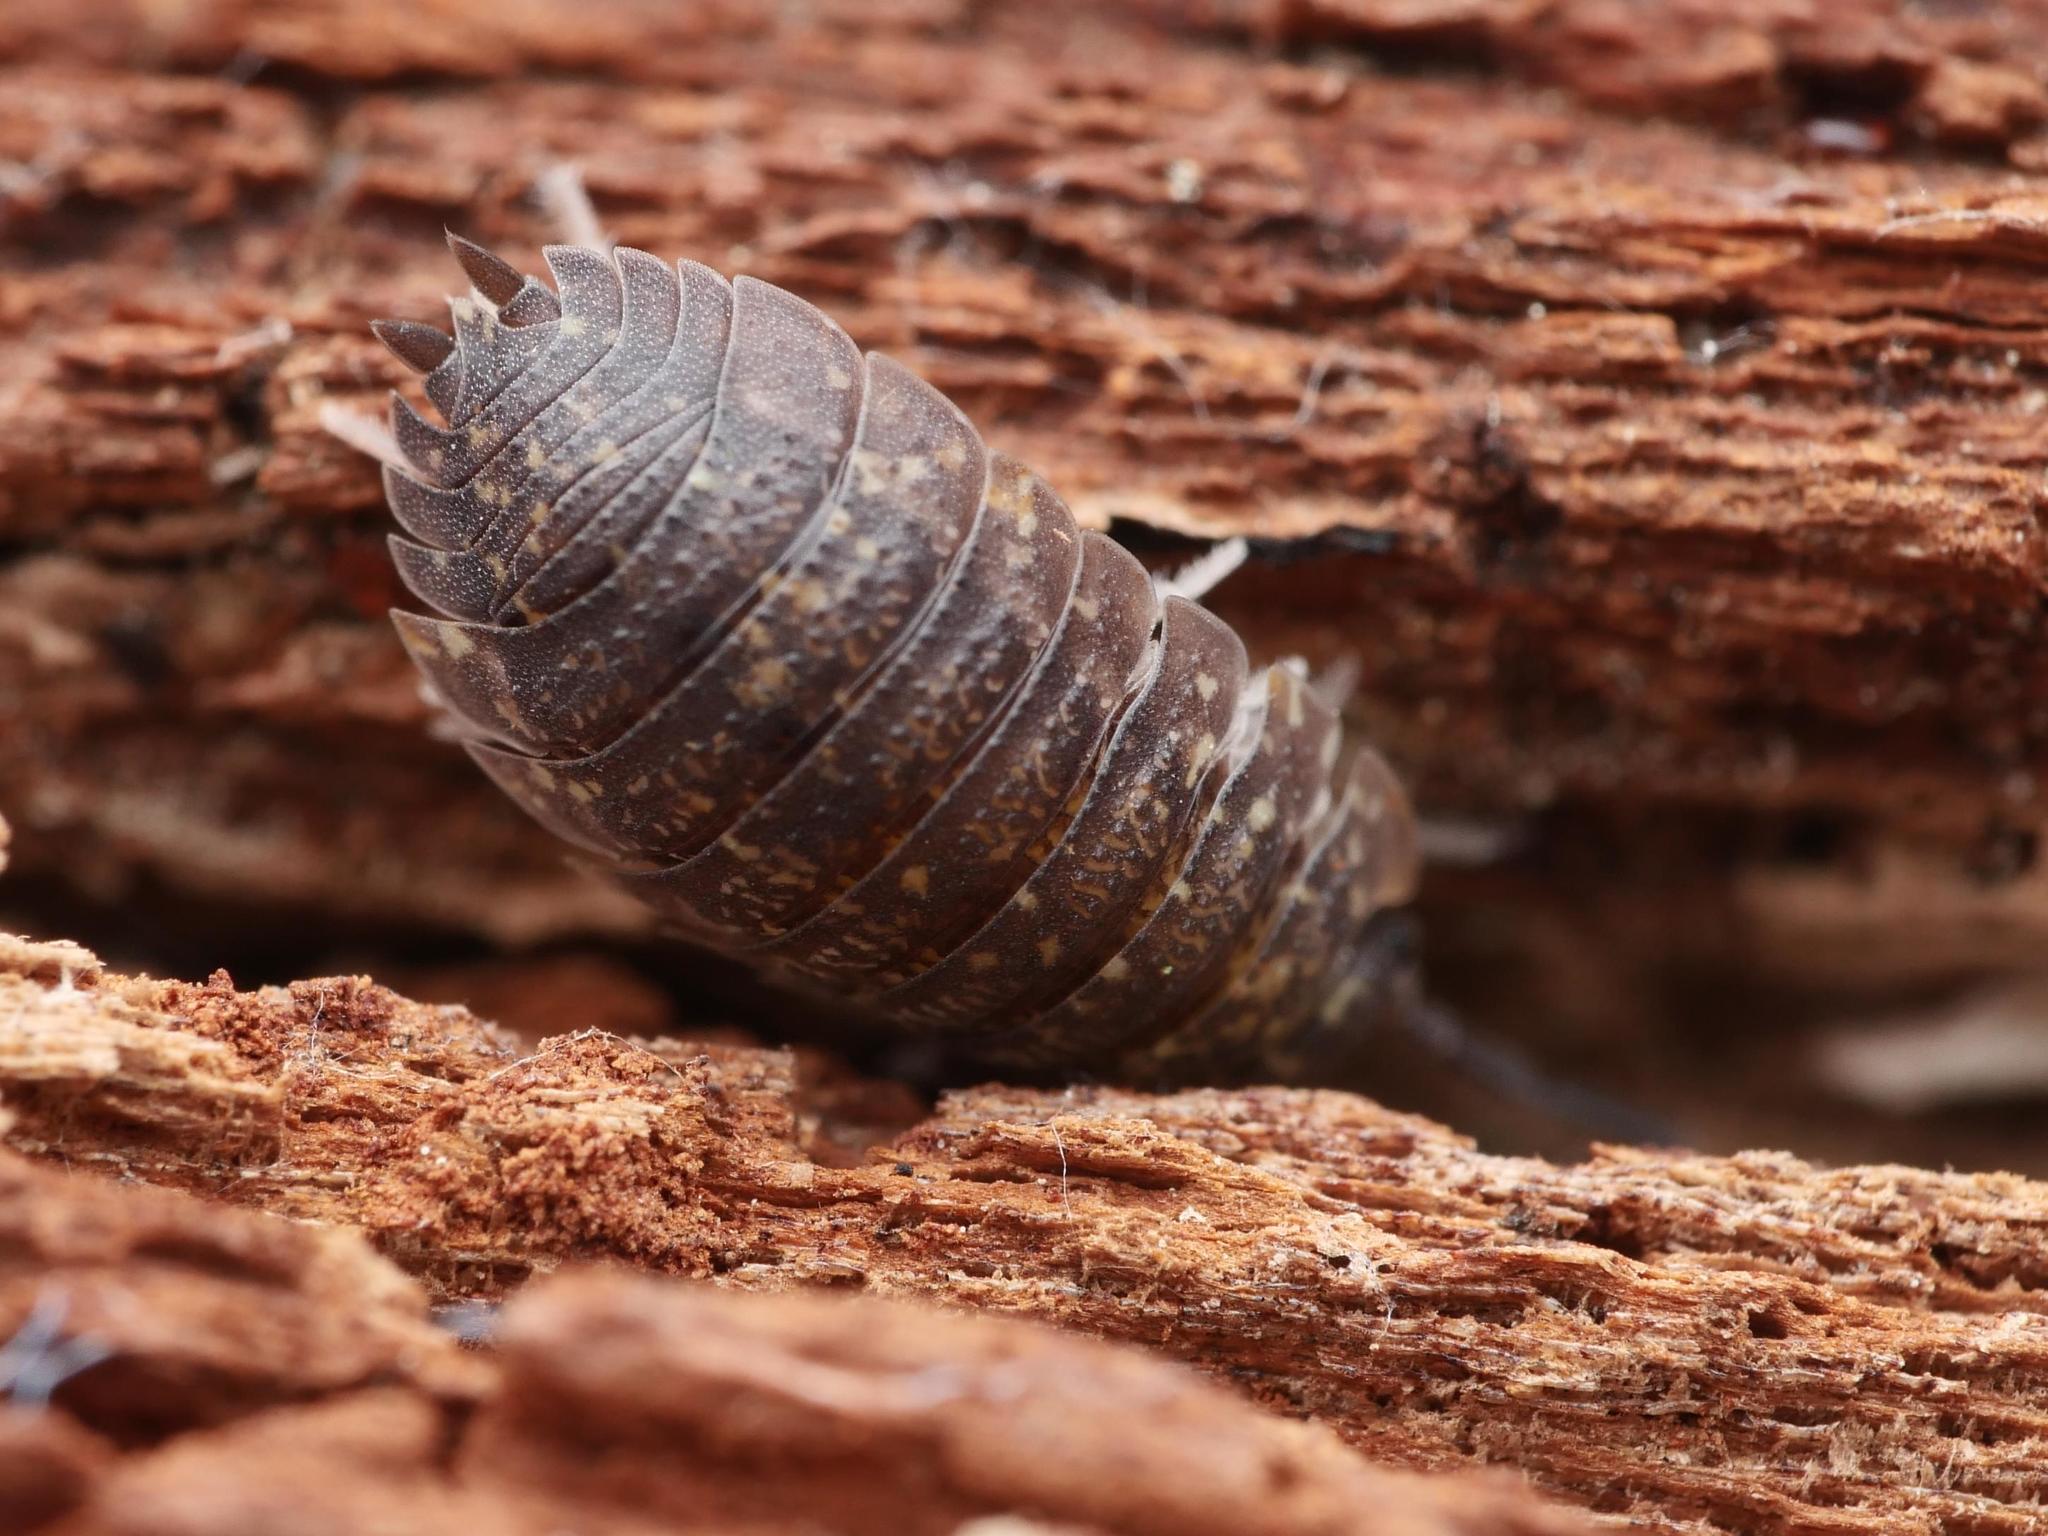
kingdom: Animalia
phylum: Arthropoda
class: Malacostraca
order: Isopoda
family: Porcellionidae
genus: Porcellio
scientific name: Porcellio scaber
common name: Common rough woodlouse
